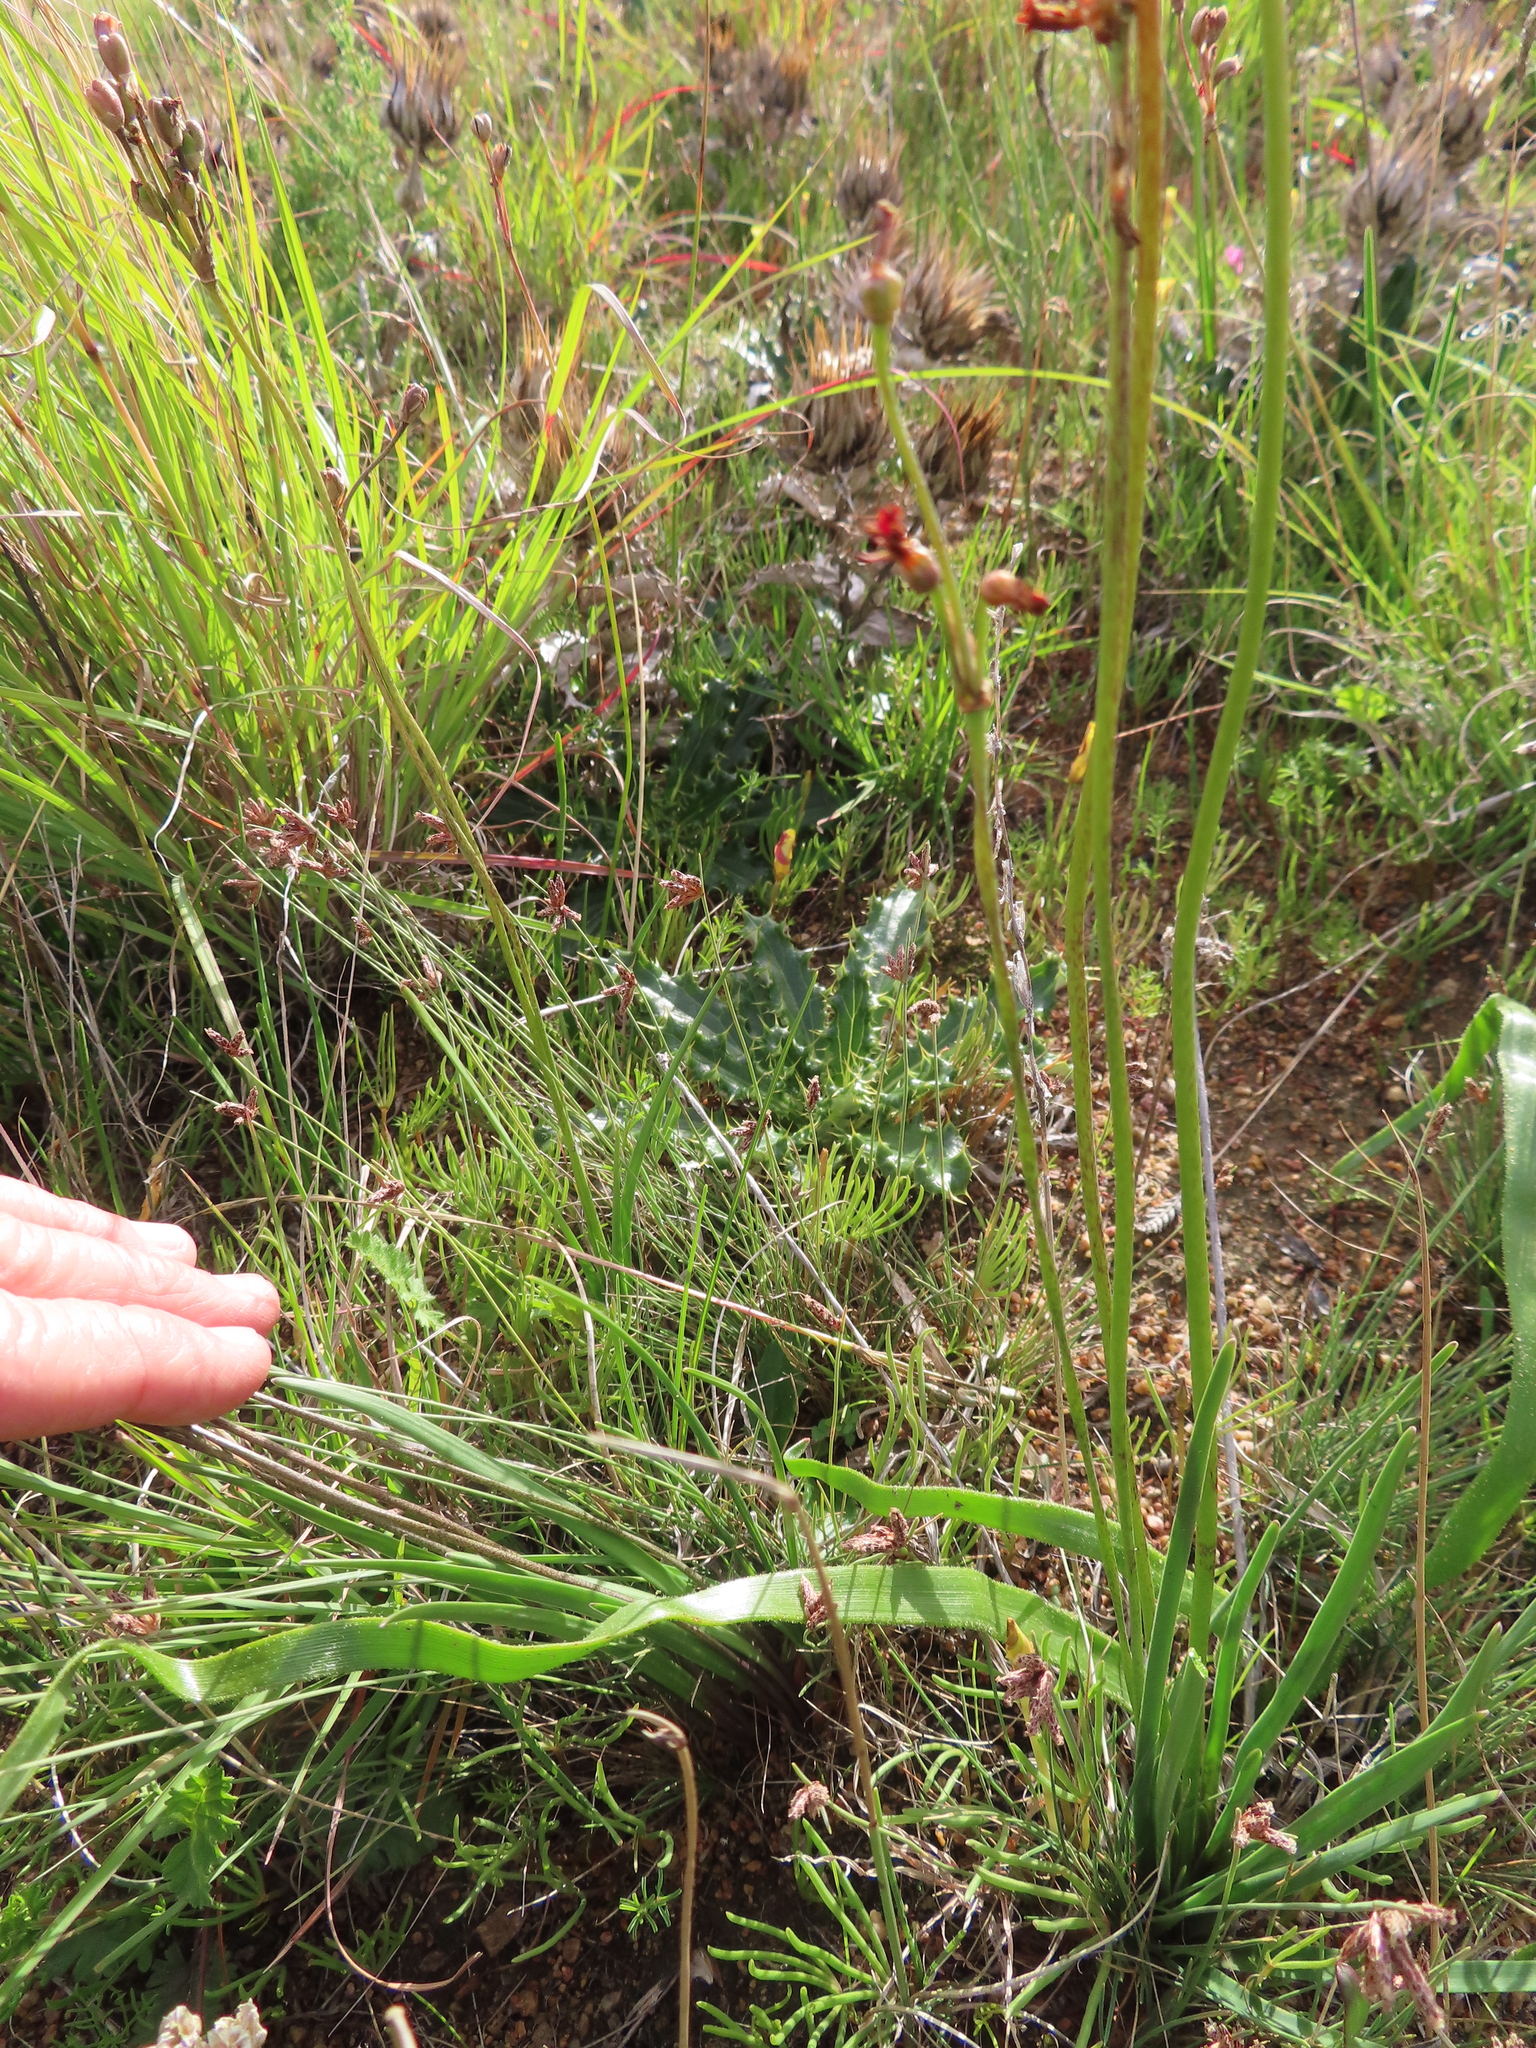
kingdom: Plantae
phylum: Tracheophyta
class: Liliopsida
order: Asparagales
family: Amaryllidaceae
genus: Tulbaghia
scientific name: Tulbaghia capensis
